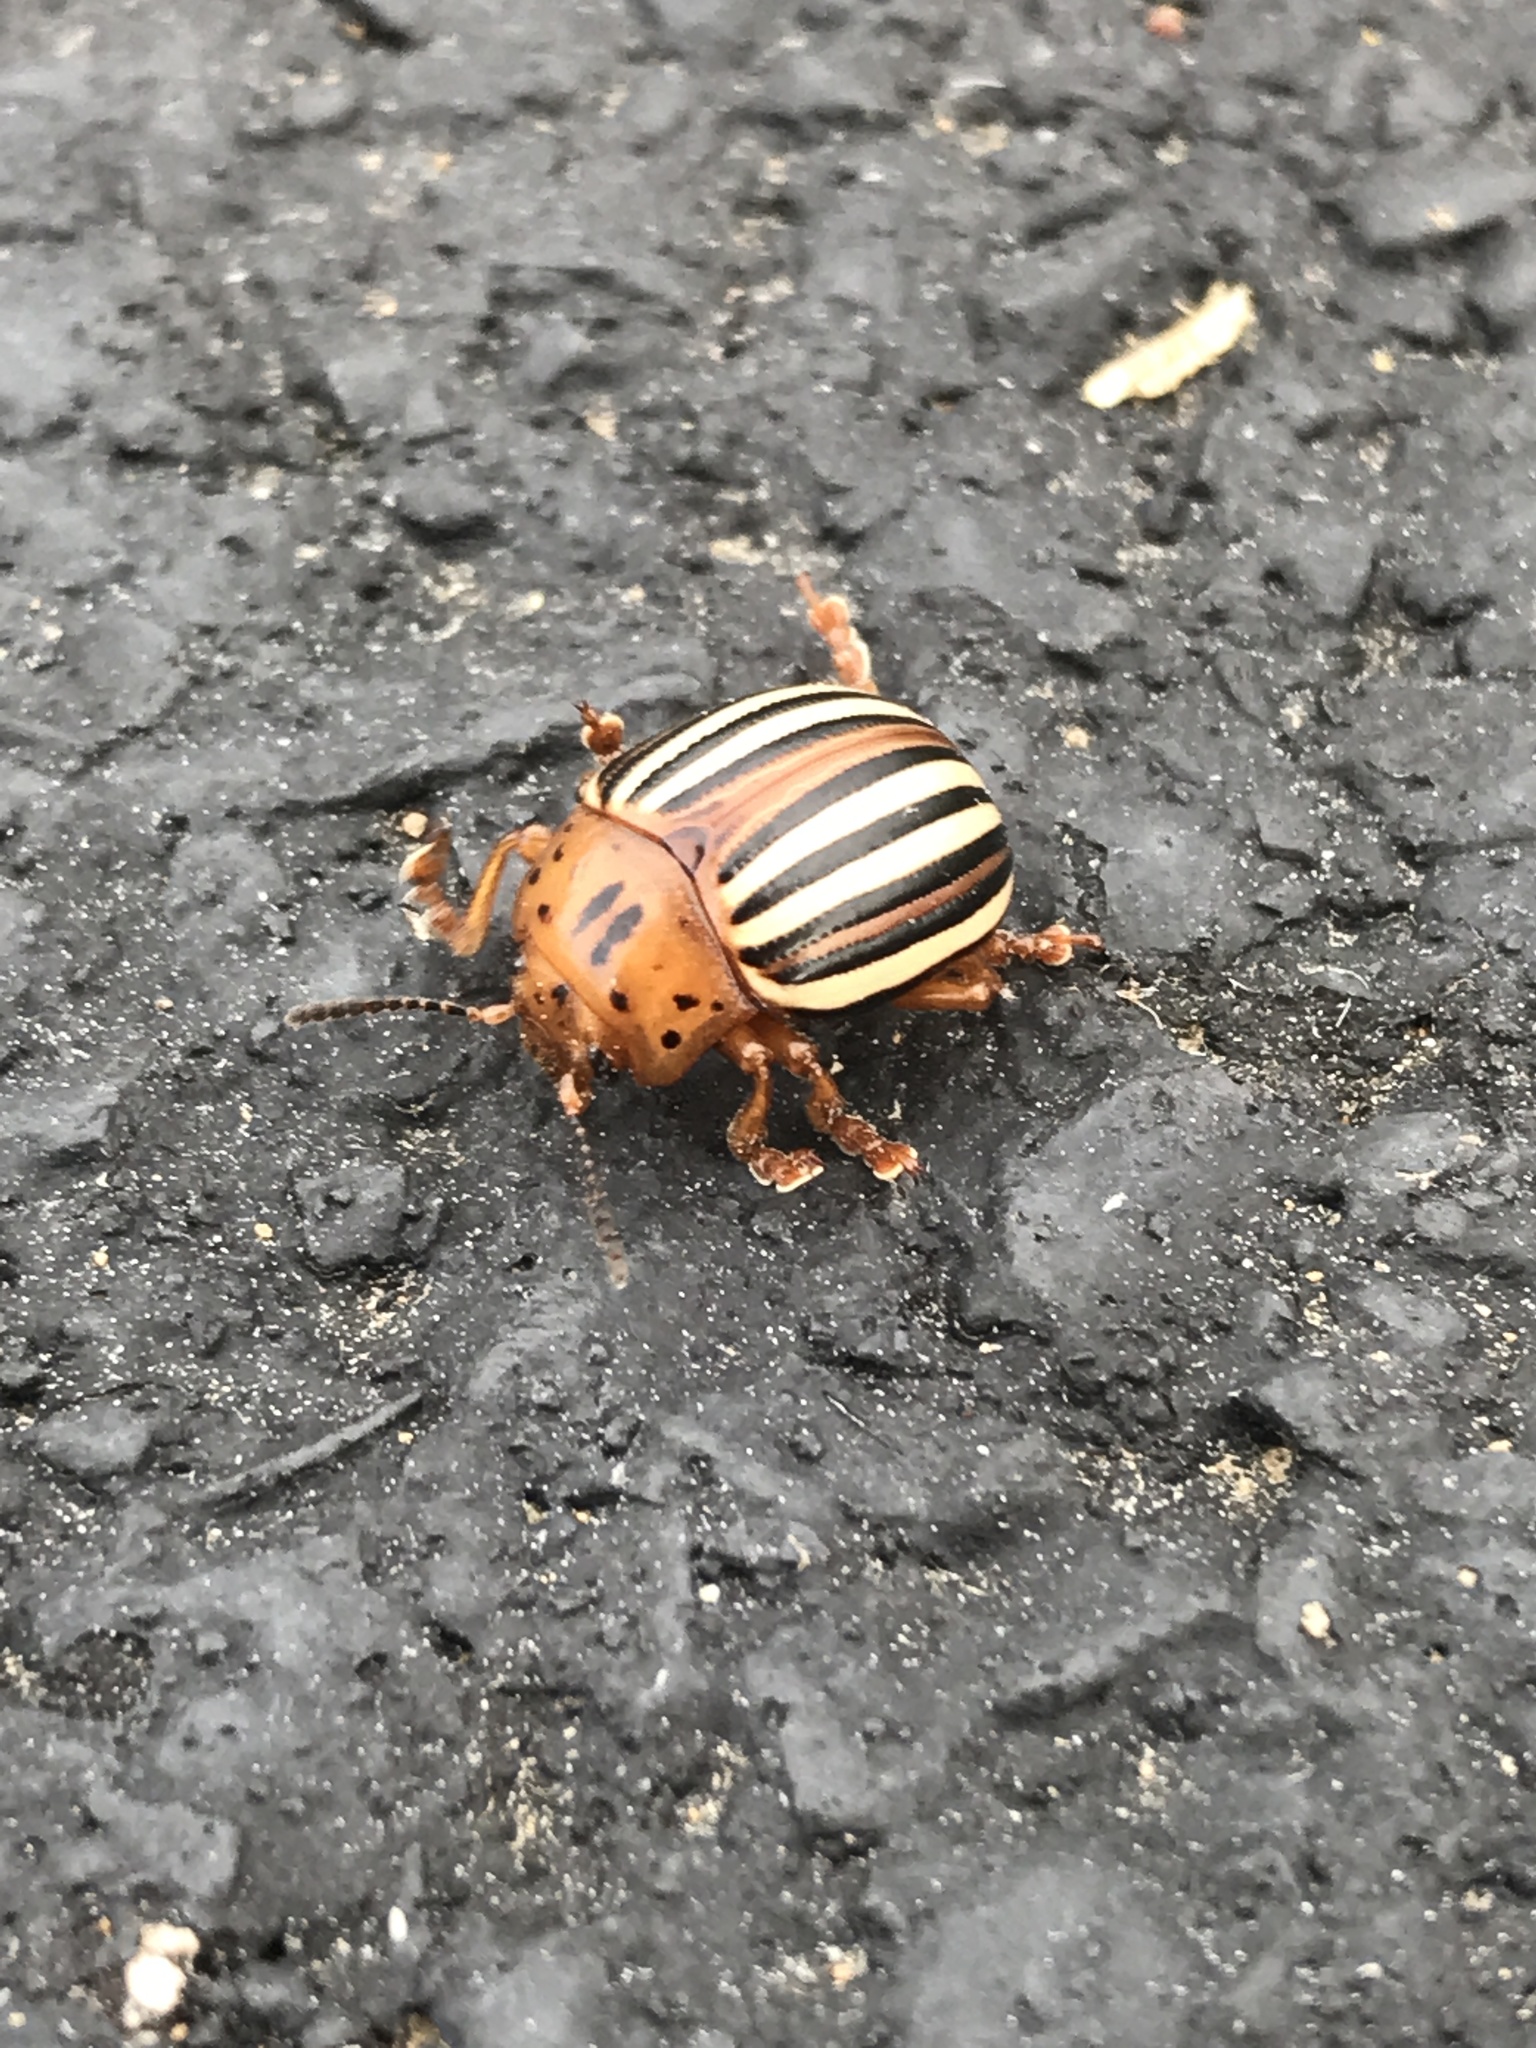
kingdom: Animalia
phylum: Arthropoda
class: Insecta
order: Coleoptera
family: Chrysomelidae
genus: Leptinotarsa
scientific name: Leptinotarsa juncta
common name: False potato beetle
